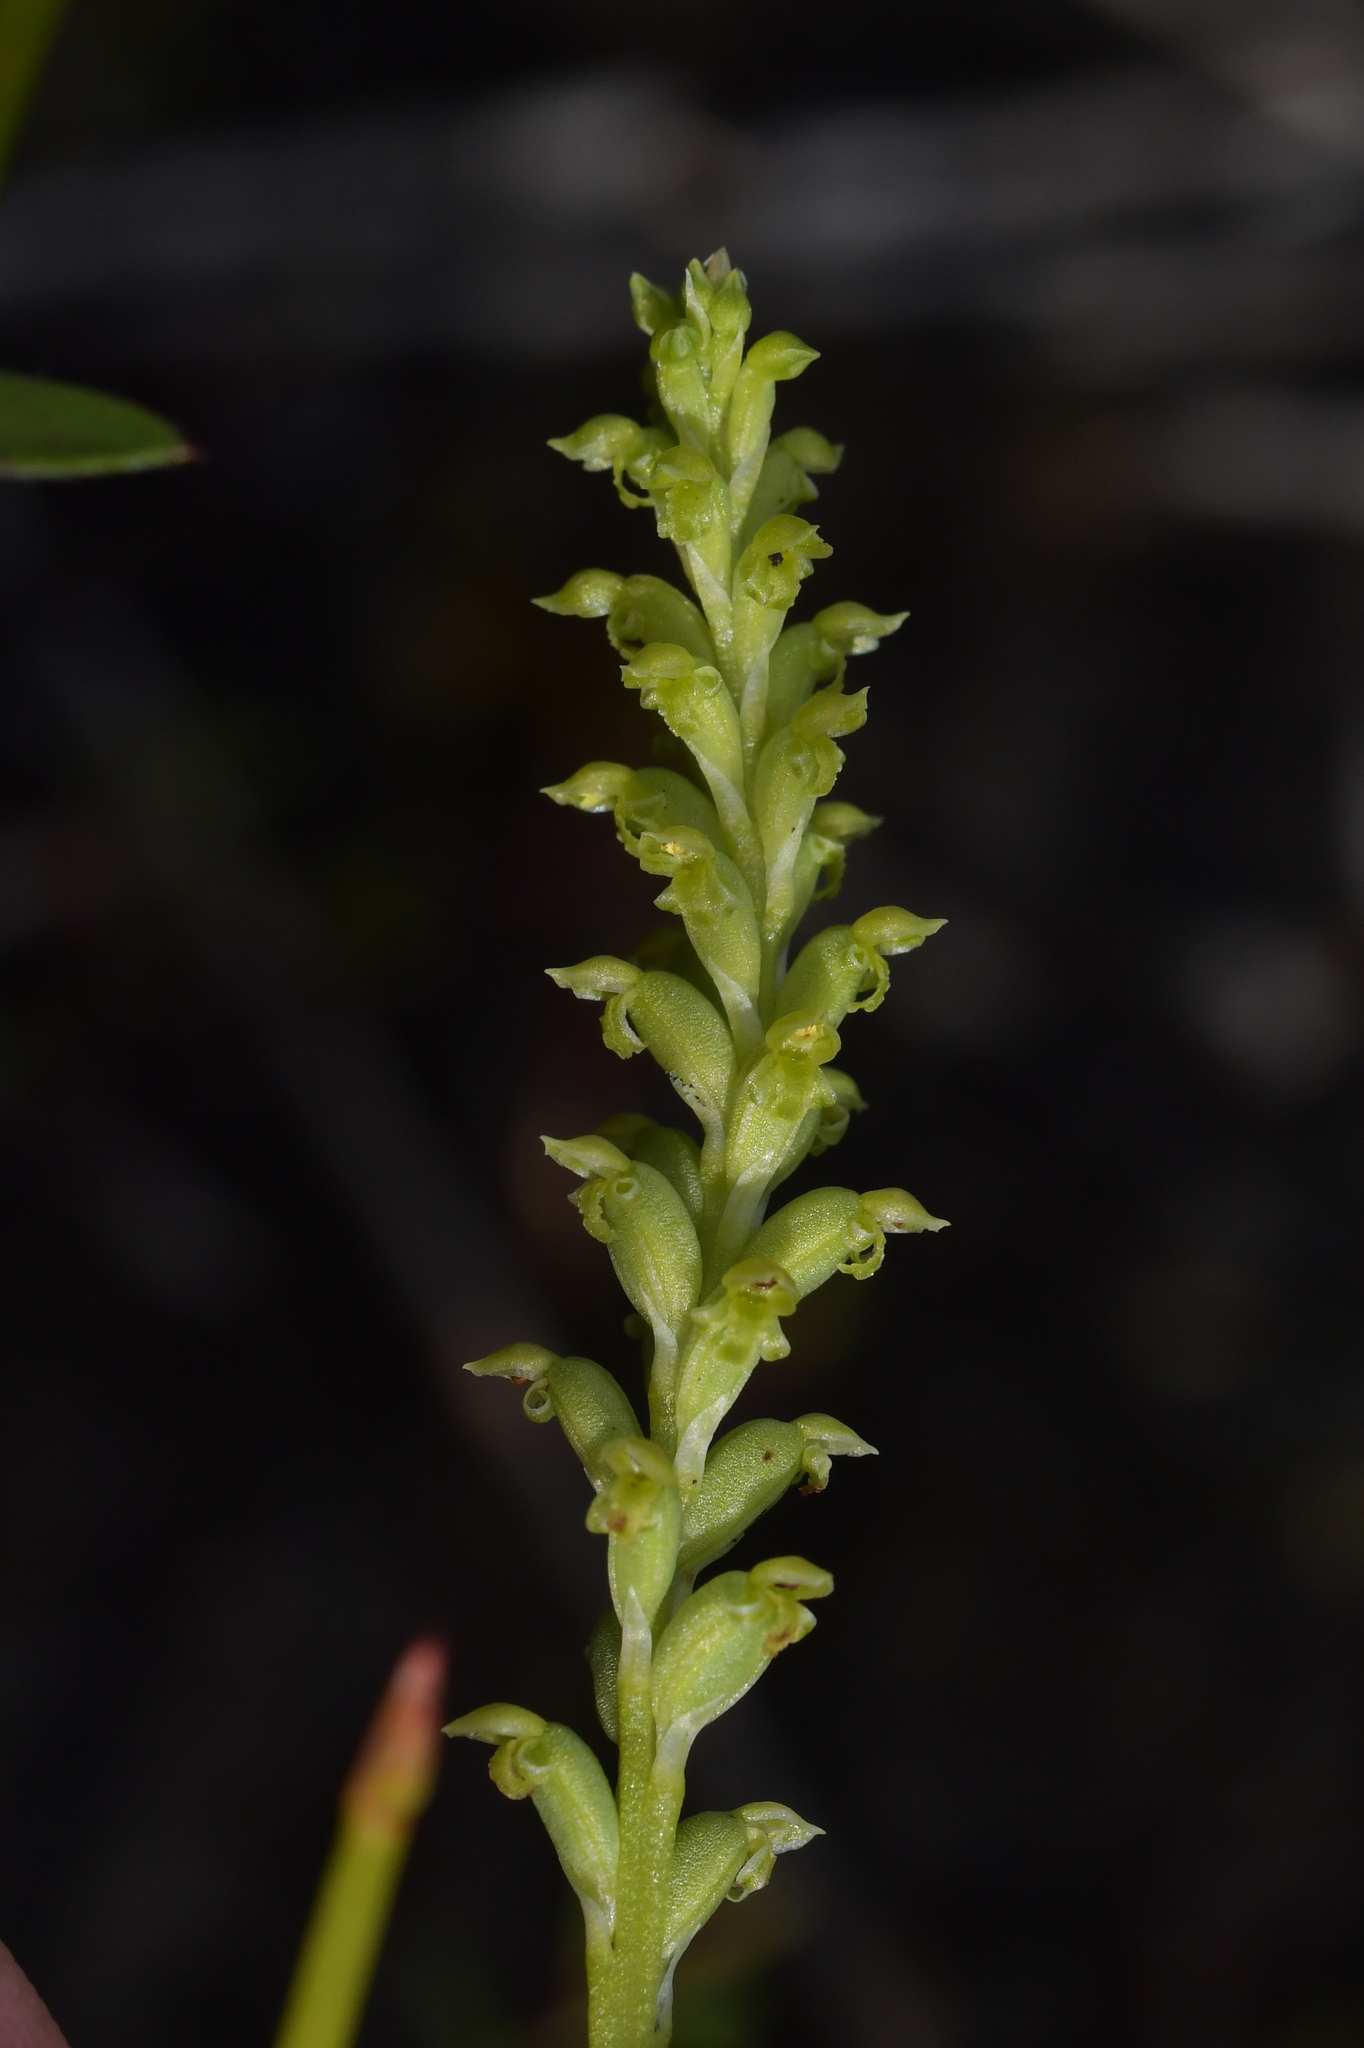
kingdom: Plantae
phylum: Tracheophyta
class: Liliopsida
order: Asparagales
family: Orchidaceae
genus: Microtis
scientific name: Microtis parviflora
